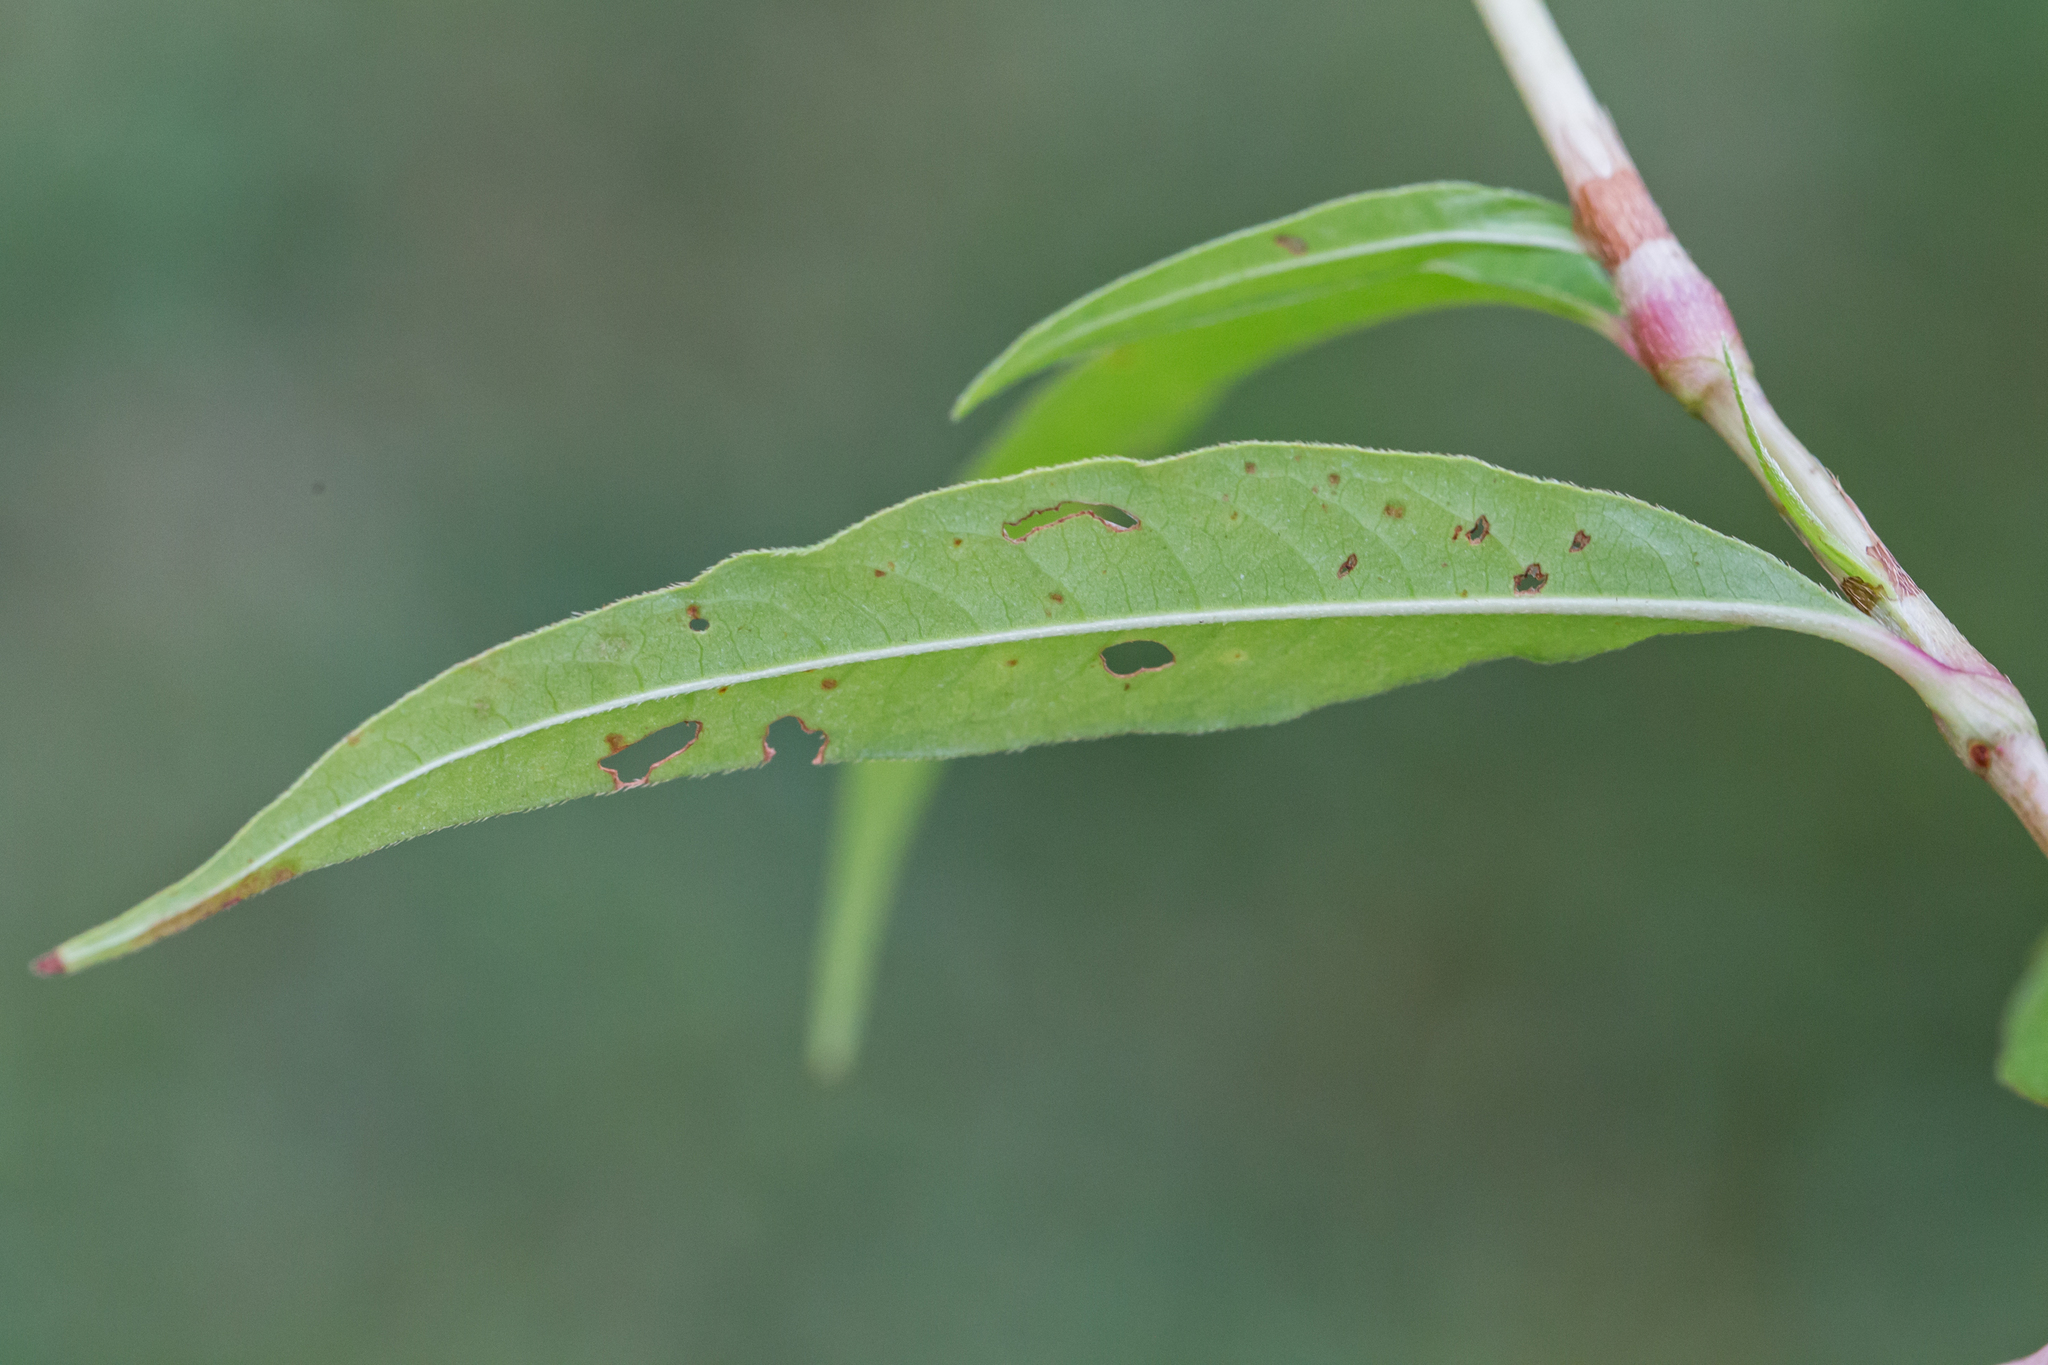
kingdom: Plantae
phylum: Tracheophyta
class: Magnoliopsida
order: Caryophyllales
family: Polygonaceae
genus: Persicaria
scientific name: Persicaria punctata
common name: Dotted smartweed
